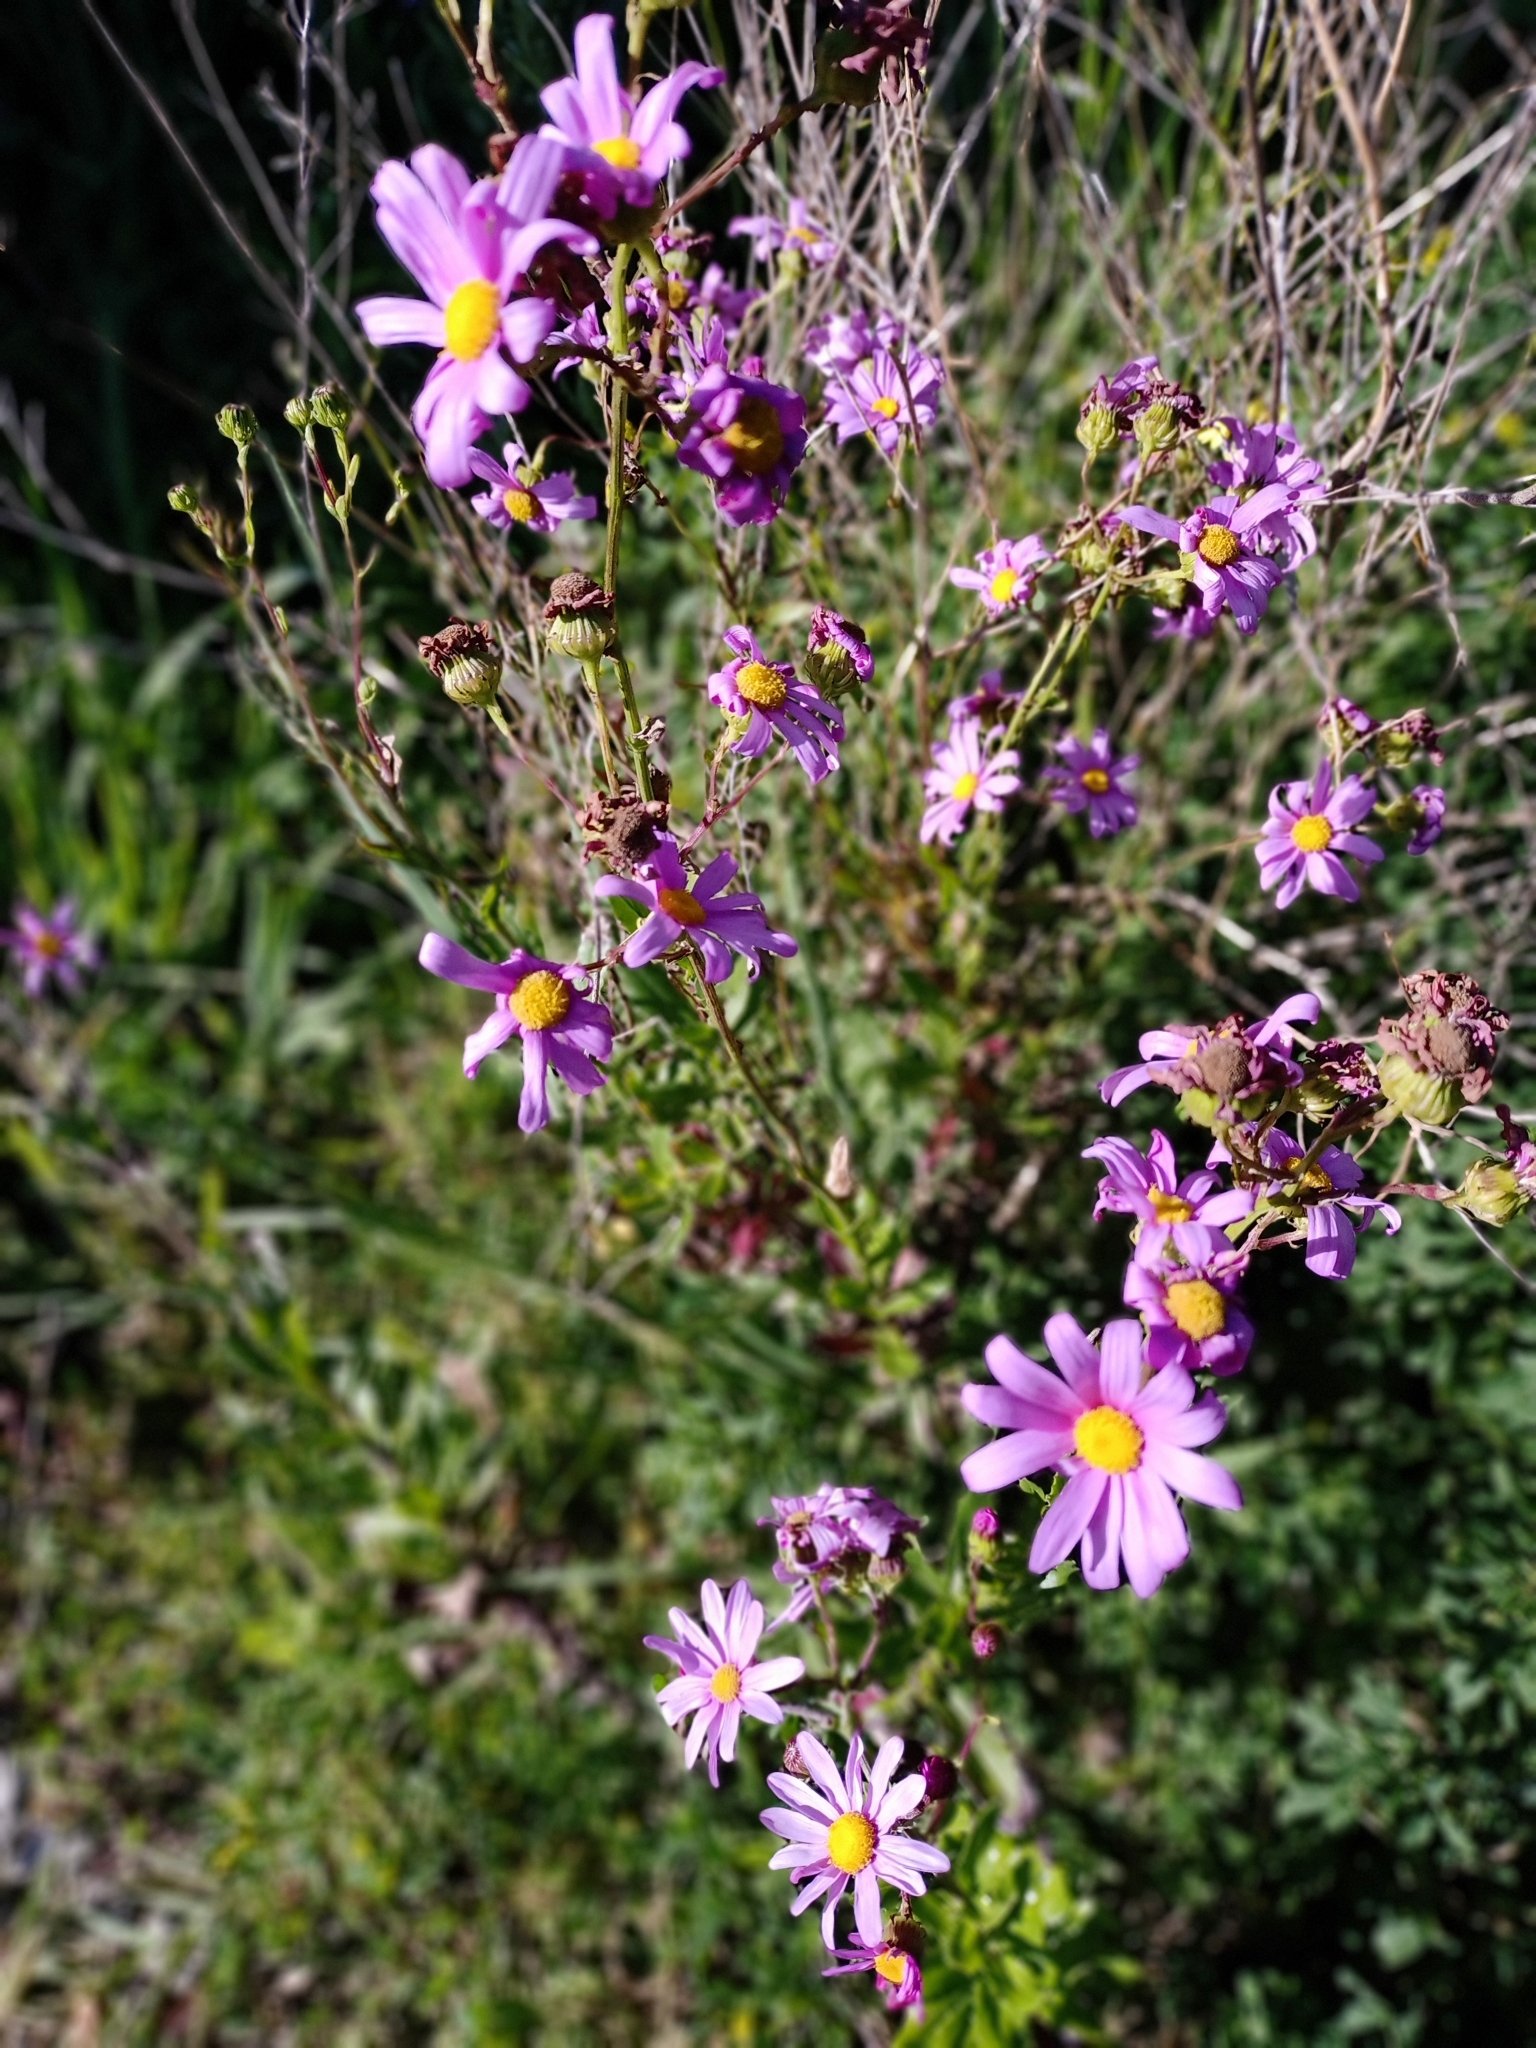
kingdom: Plantae
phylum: Tracheophyta
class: Magnoliopsida
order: Asterales
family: Asteraceae
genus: Senecio
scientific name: Senecio glastifolius
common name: Woad-leaved ragwort
